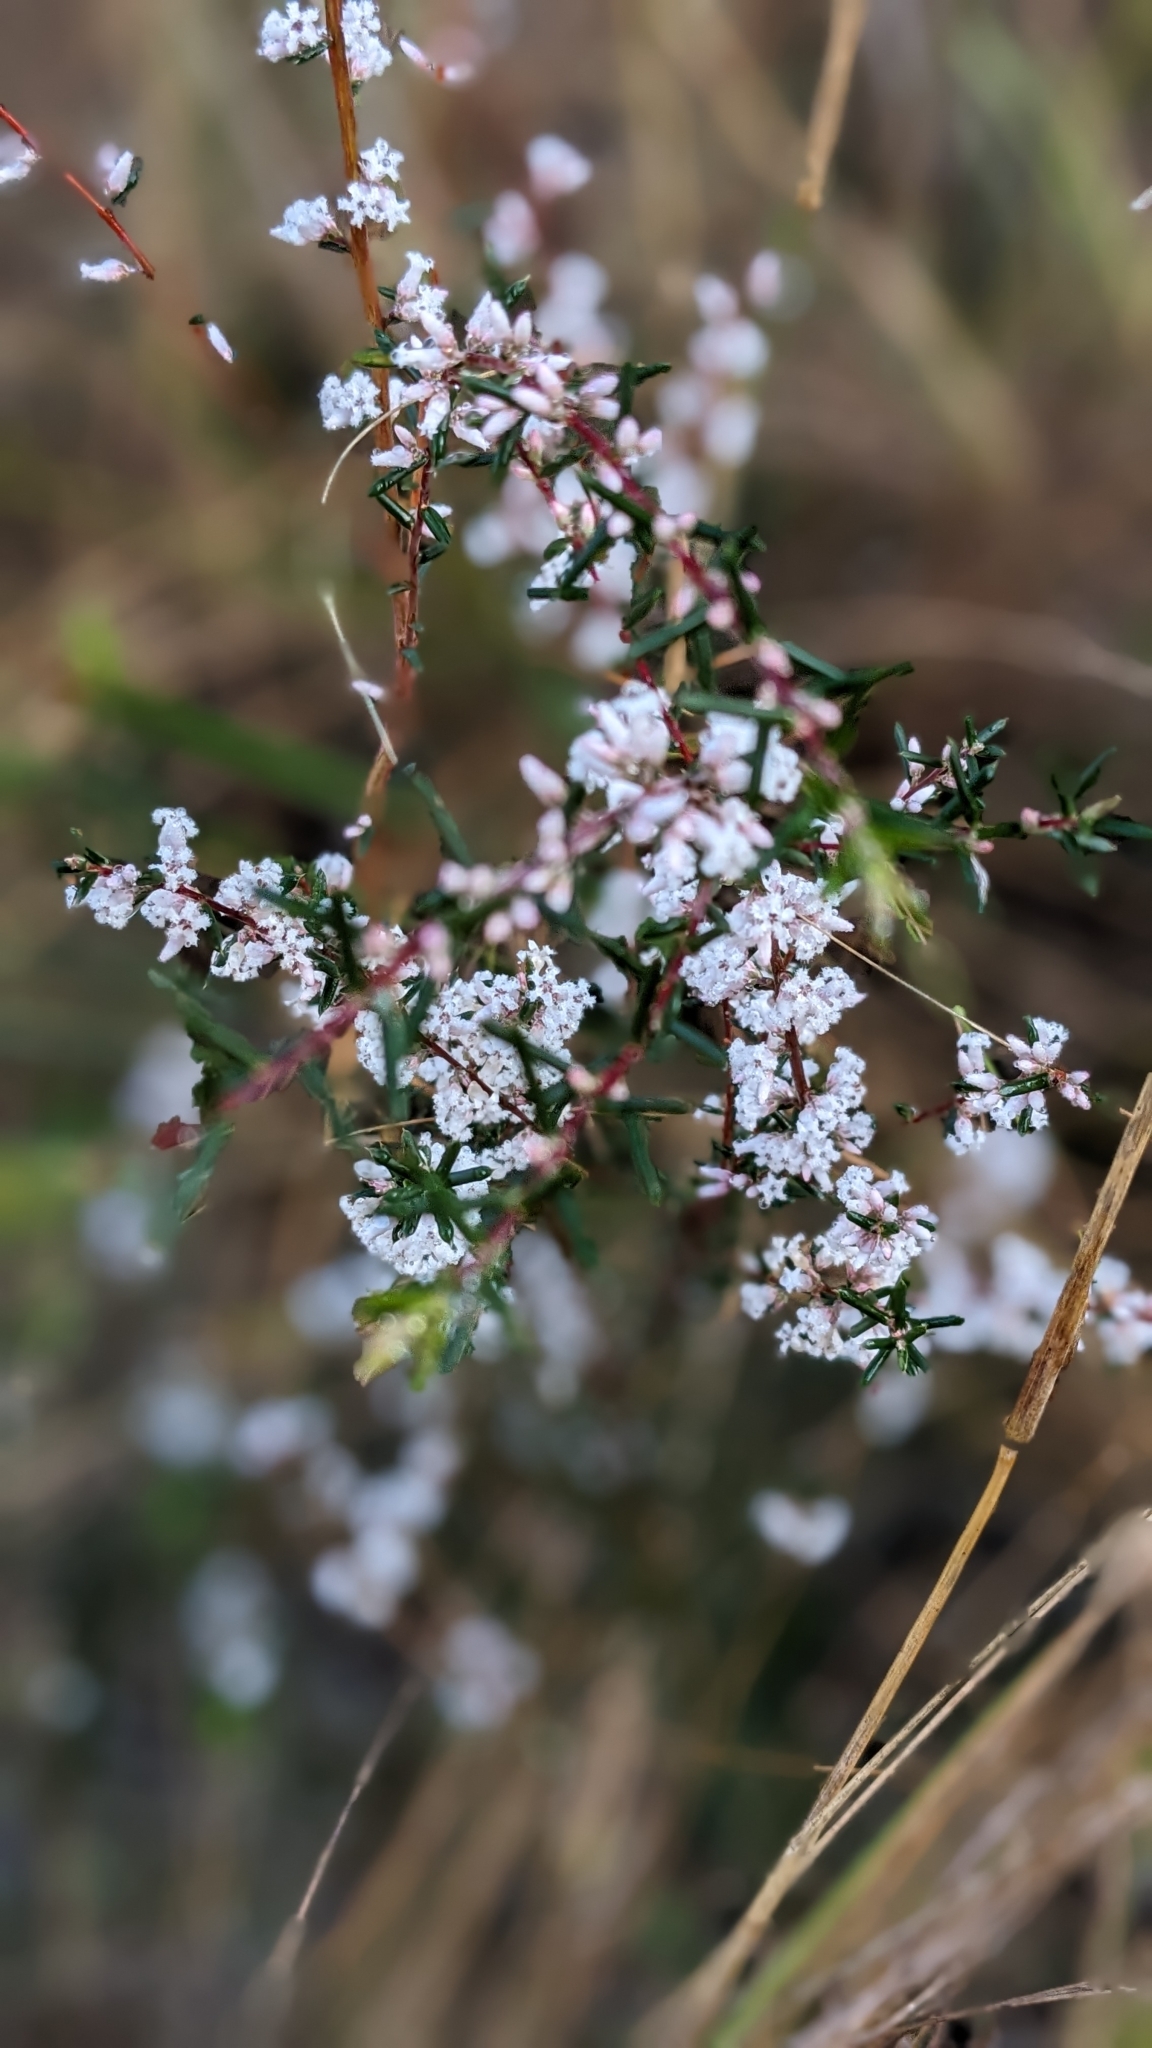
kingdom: Plantae
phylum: Tracheophyta
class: Magnoliopsida
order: Ericales
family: Ericaceae
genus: Styphelia
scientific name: Styphelia ericoides
